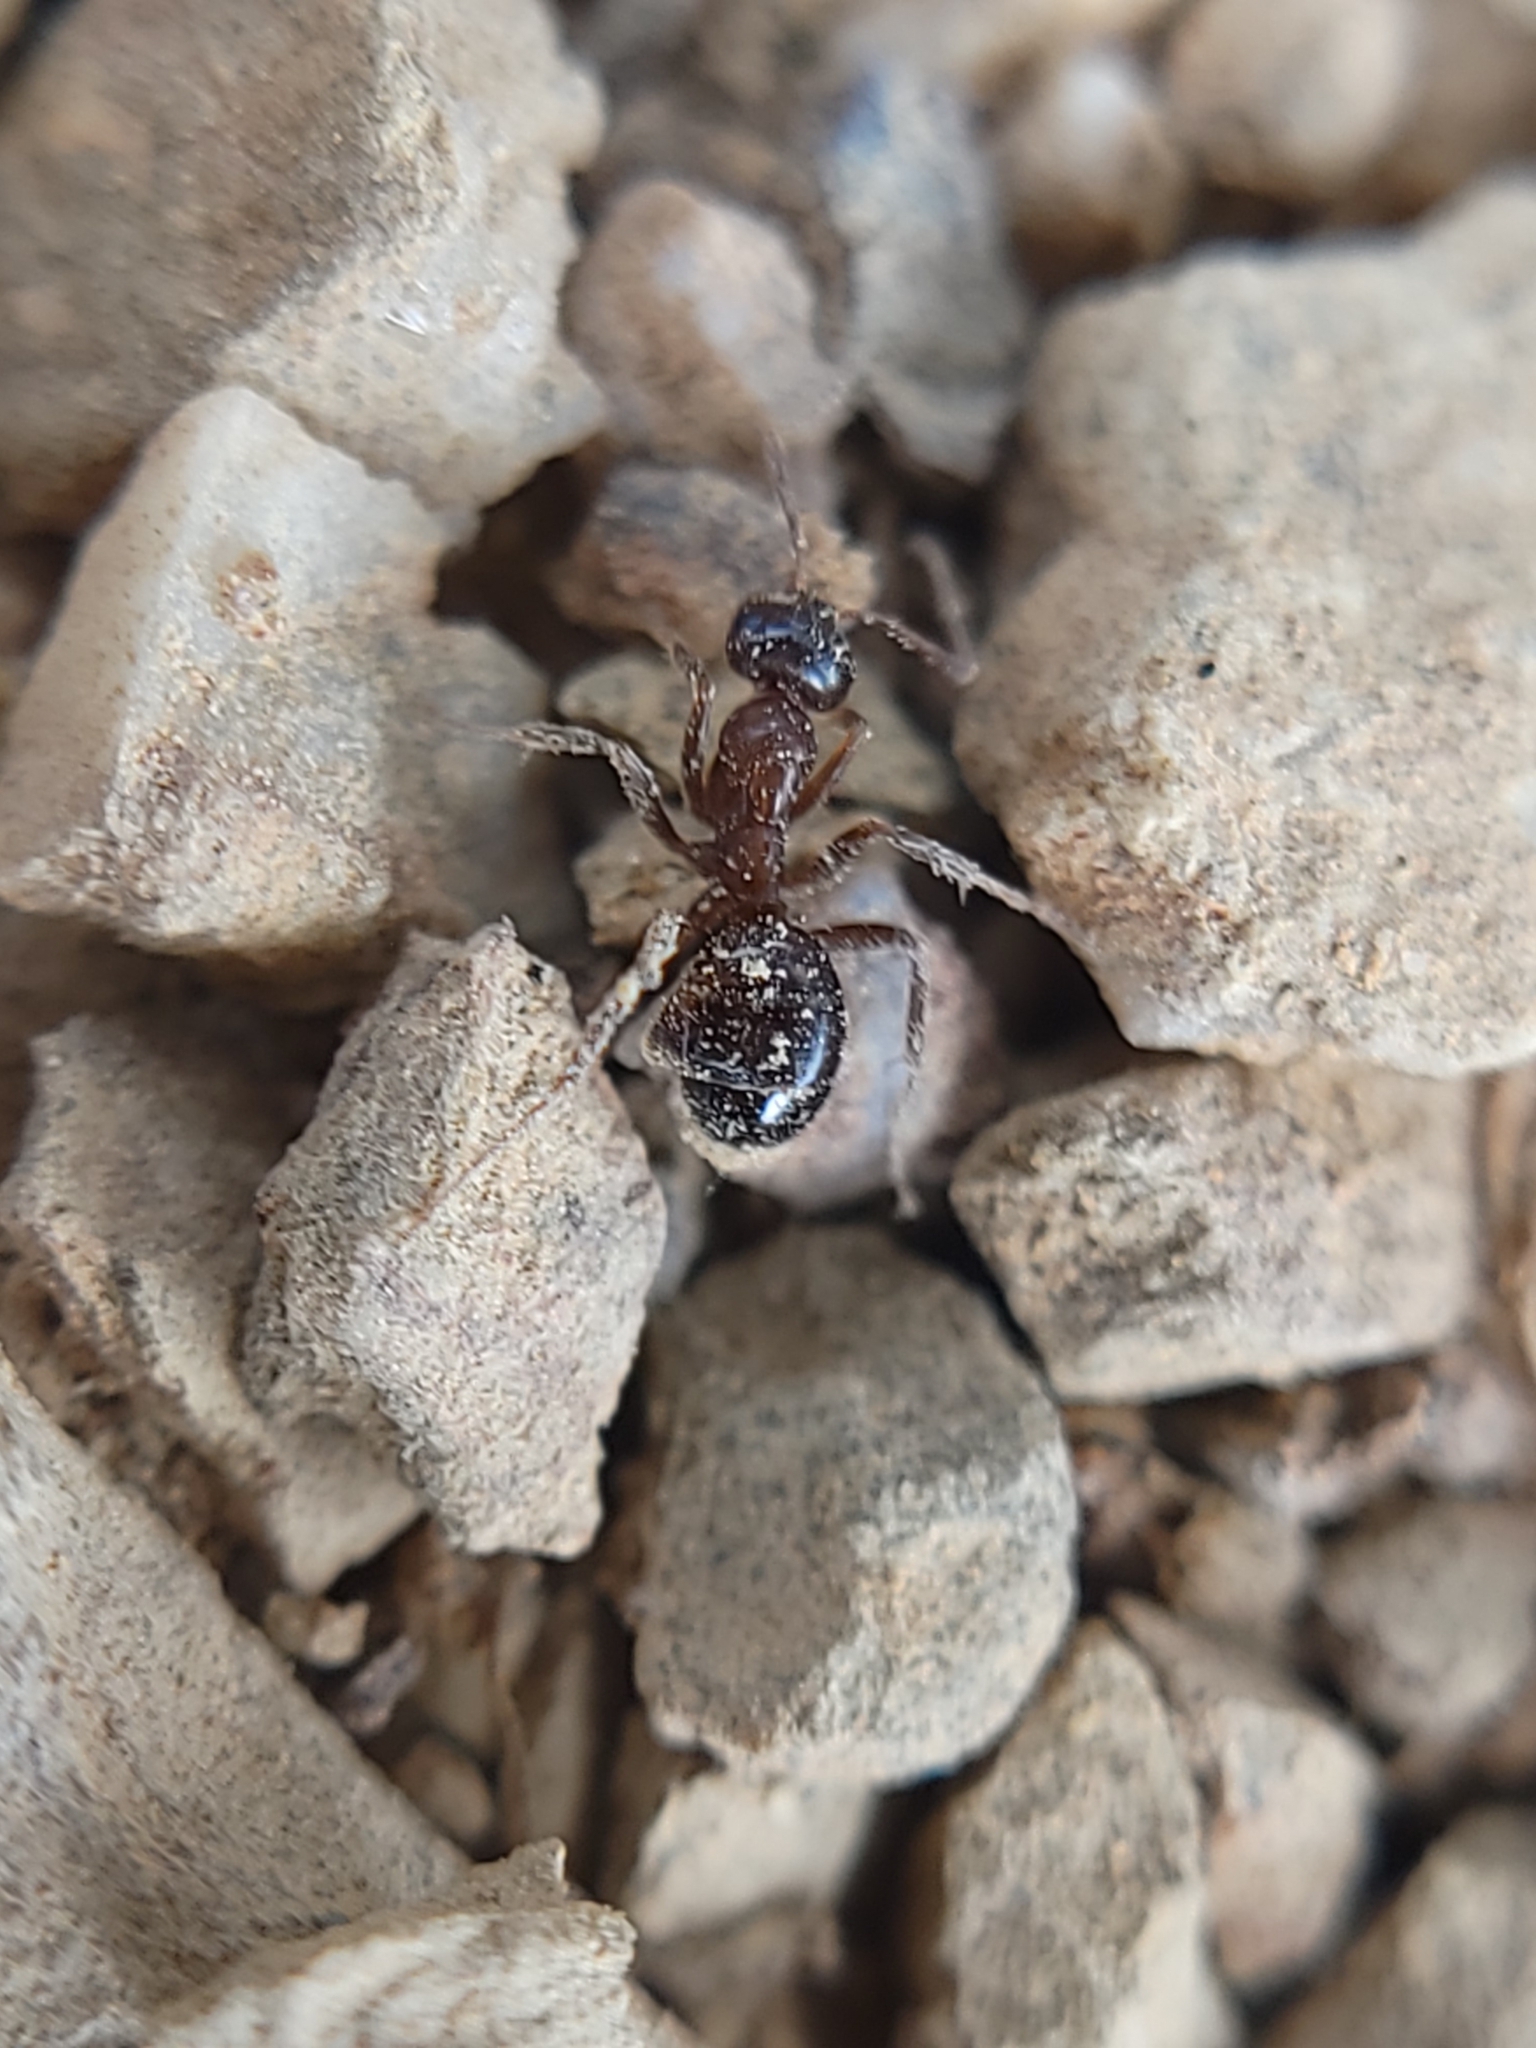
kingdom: Animalia
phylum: Arthropoda
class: Insecta
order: Hymenoptera
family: Formicidae
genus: Formica
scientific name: Formica subpolita
